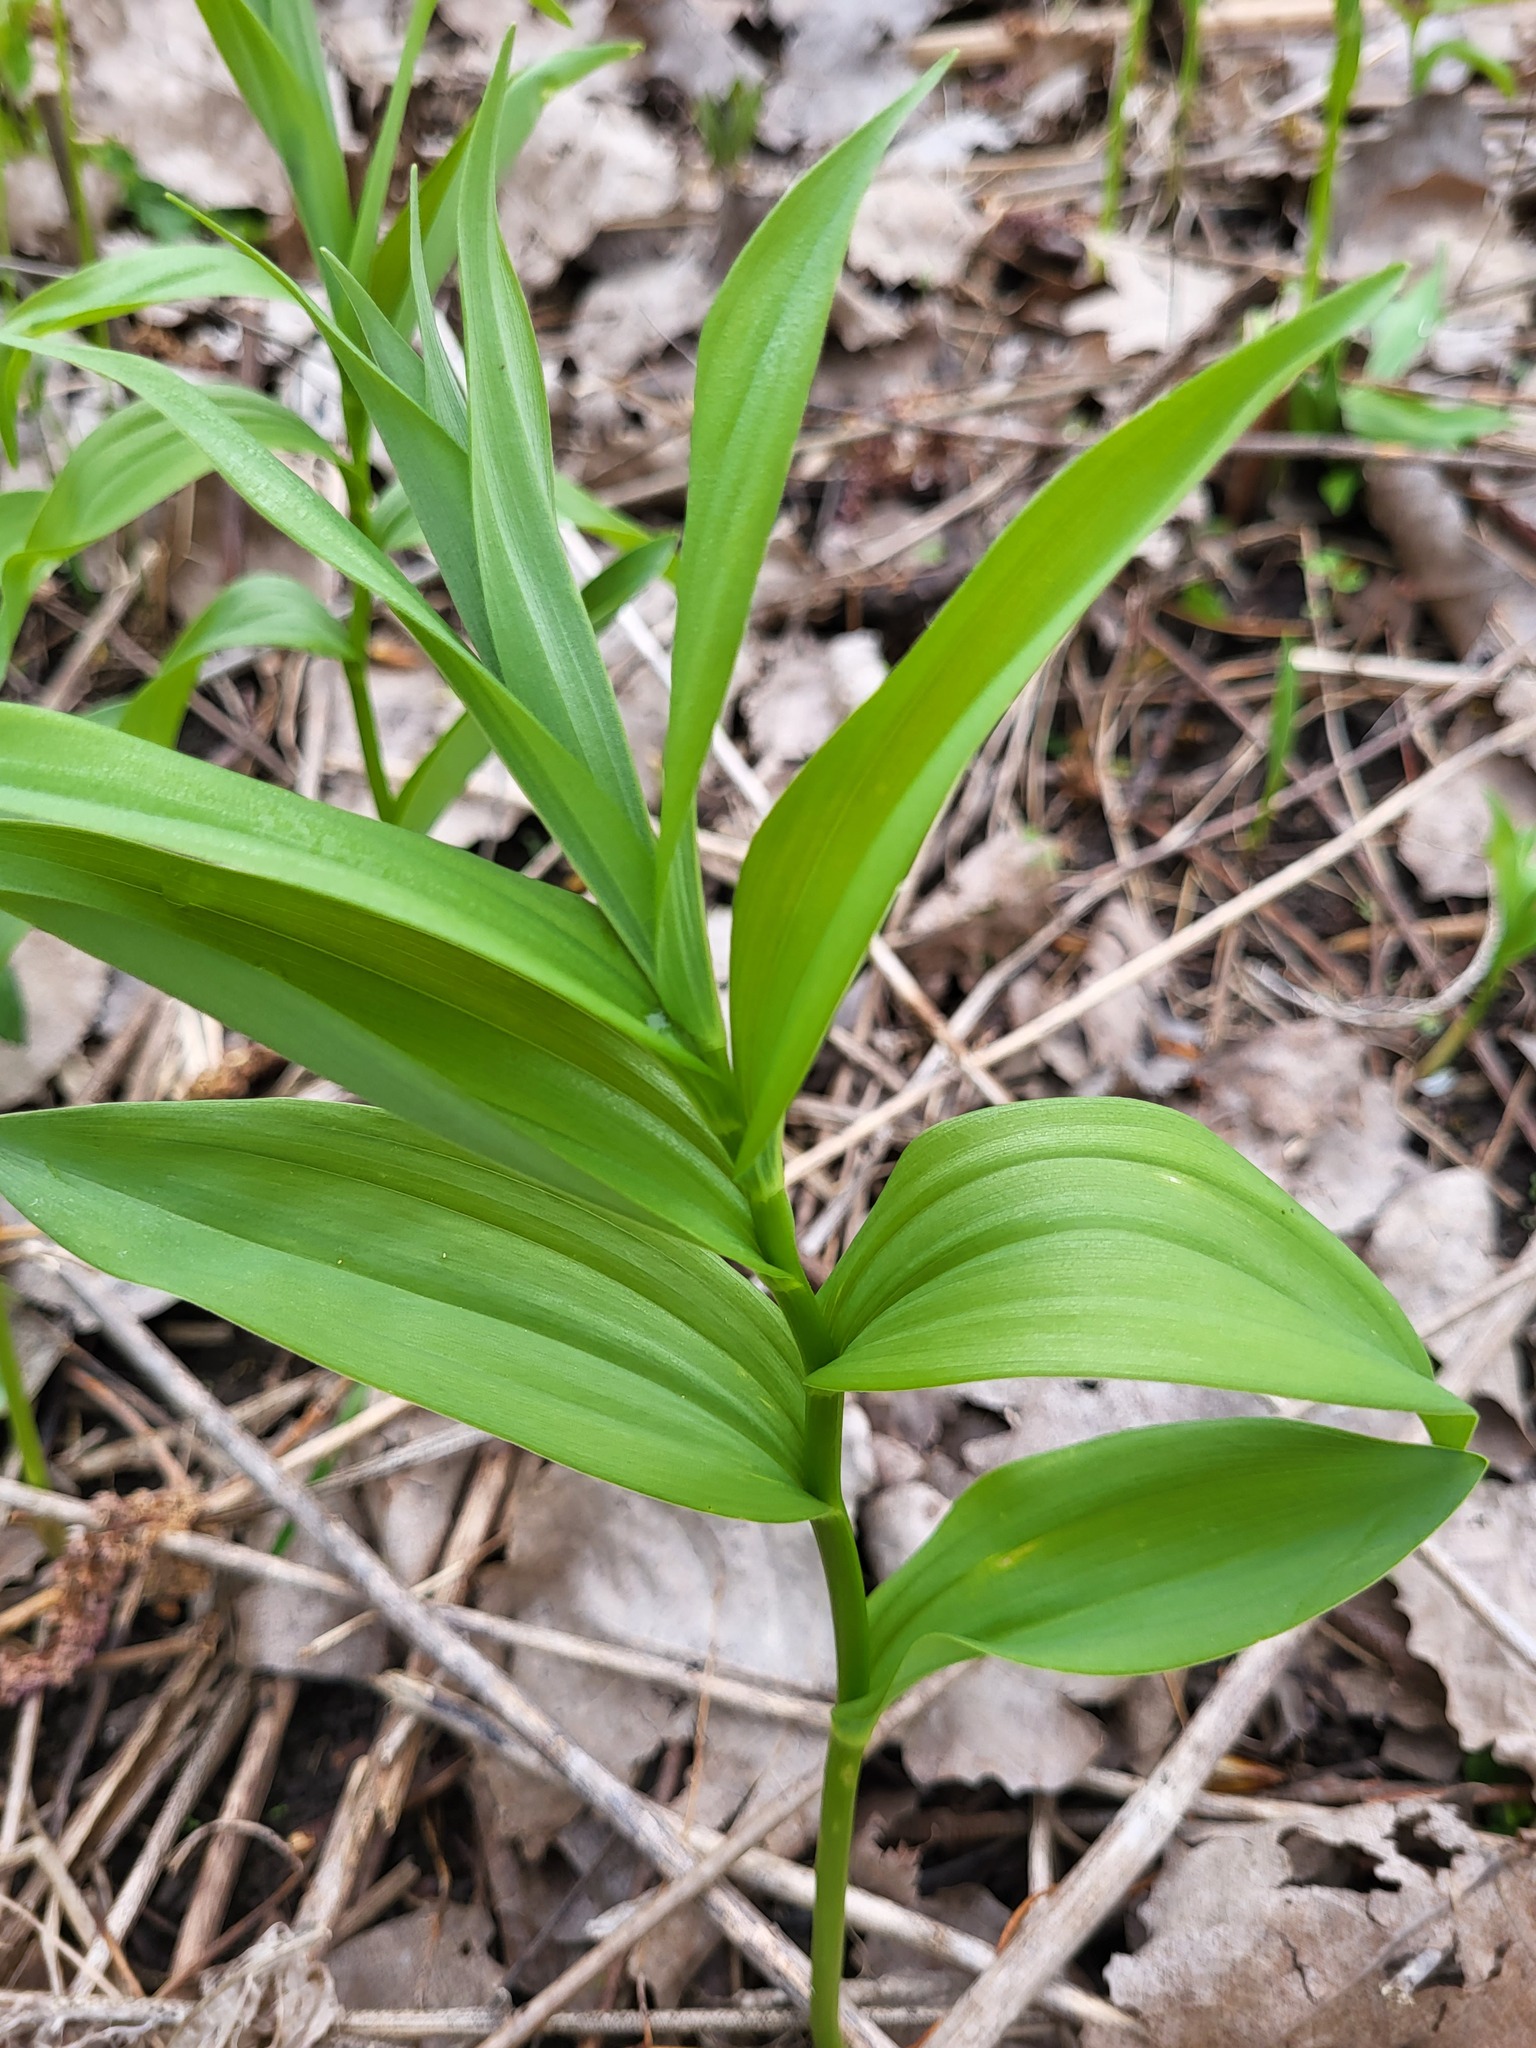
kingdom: Plantae
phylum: Tracheophyta
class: Liliopsida
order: Asparagales
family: Asparagaceae
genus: Maianthemum
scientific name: Maianthemum stellatum
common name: Little false solomon's seal
